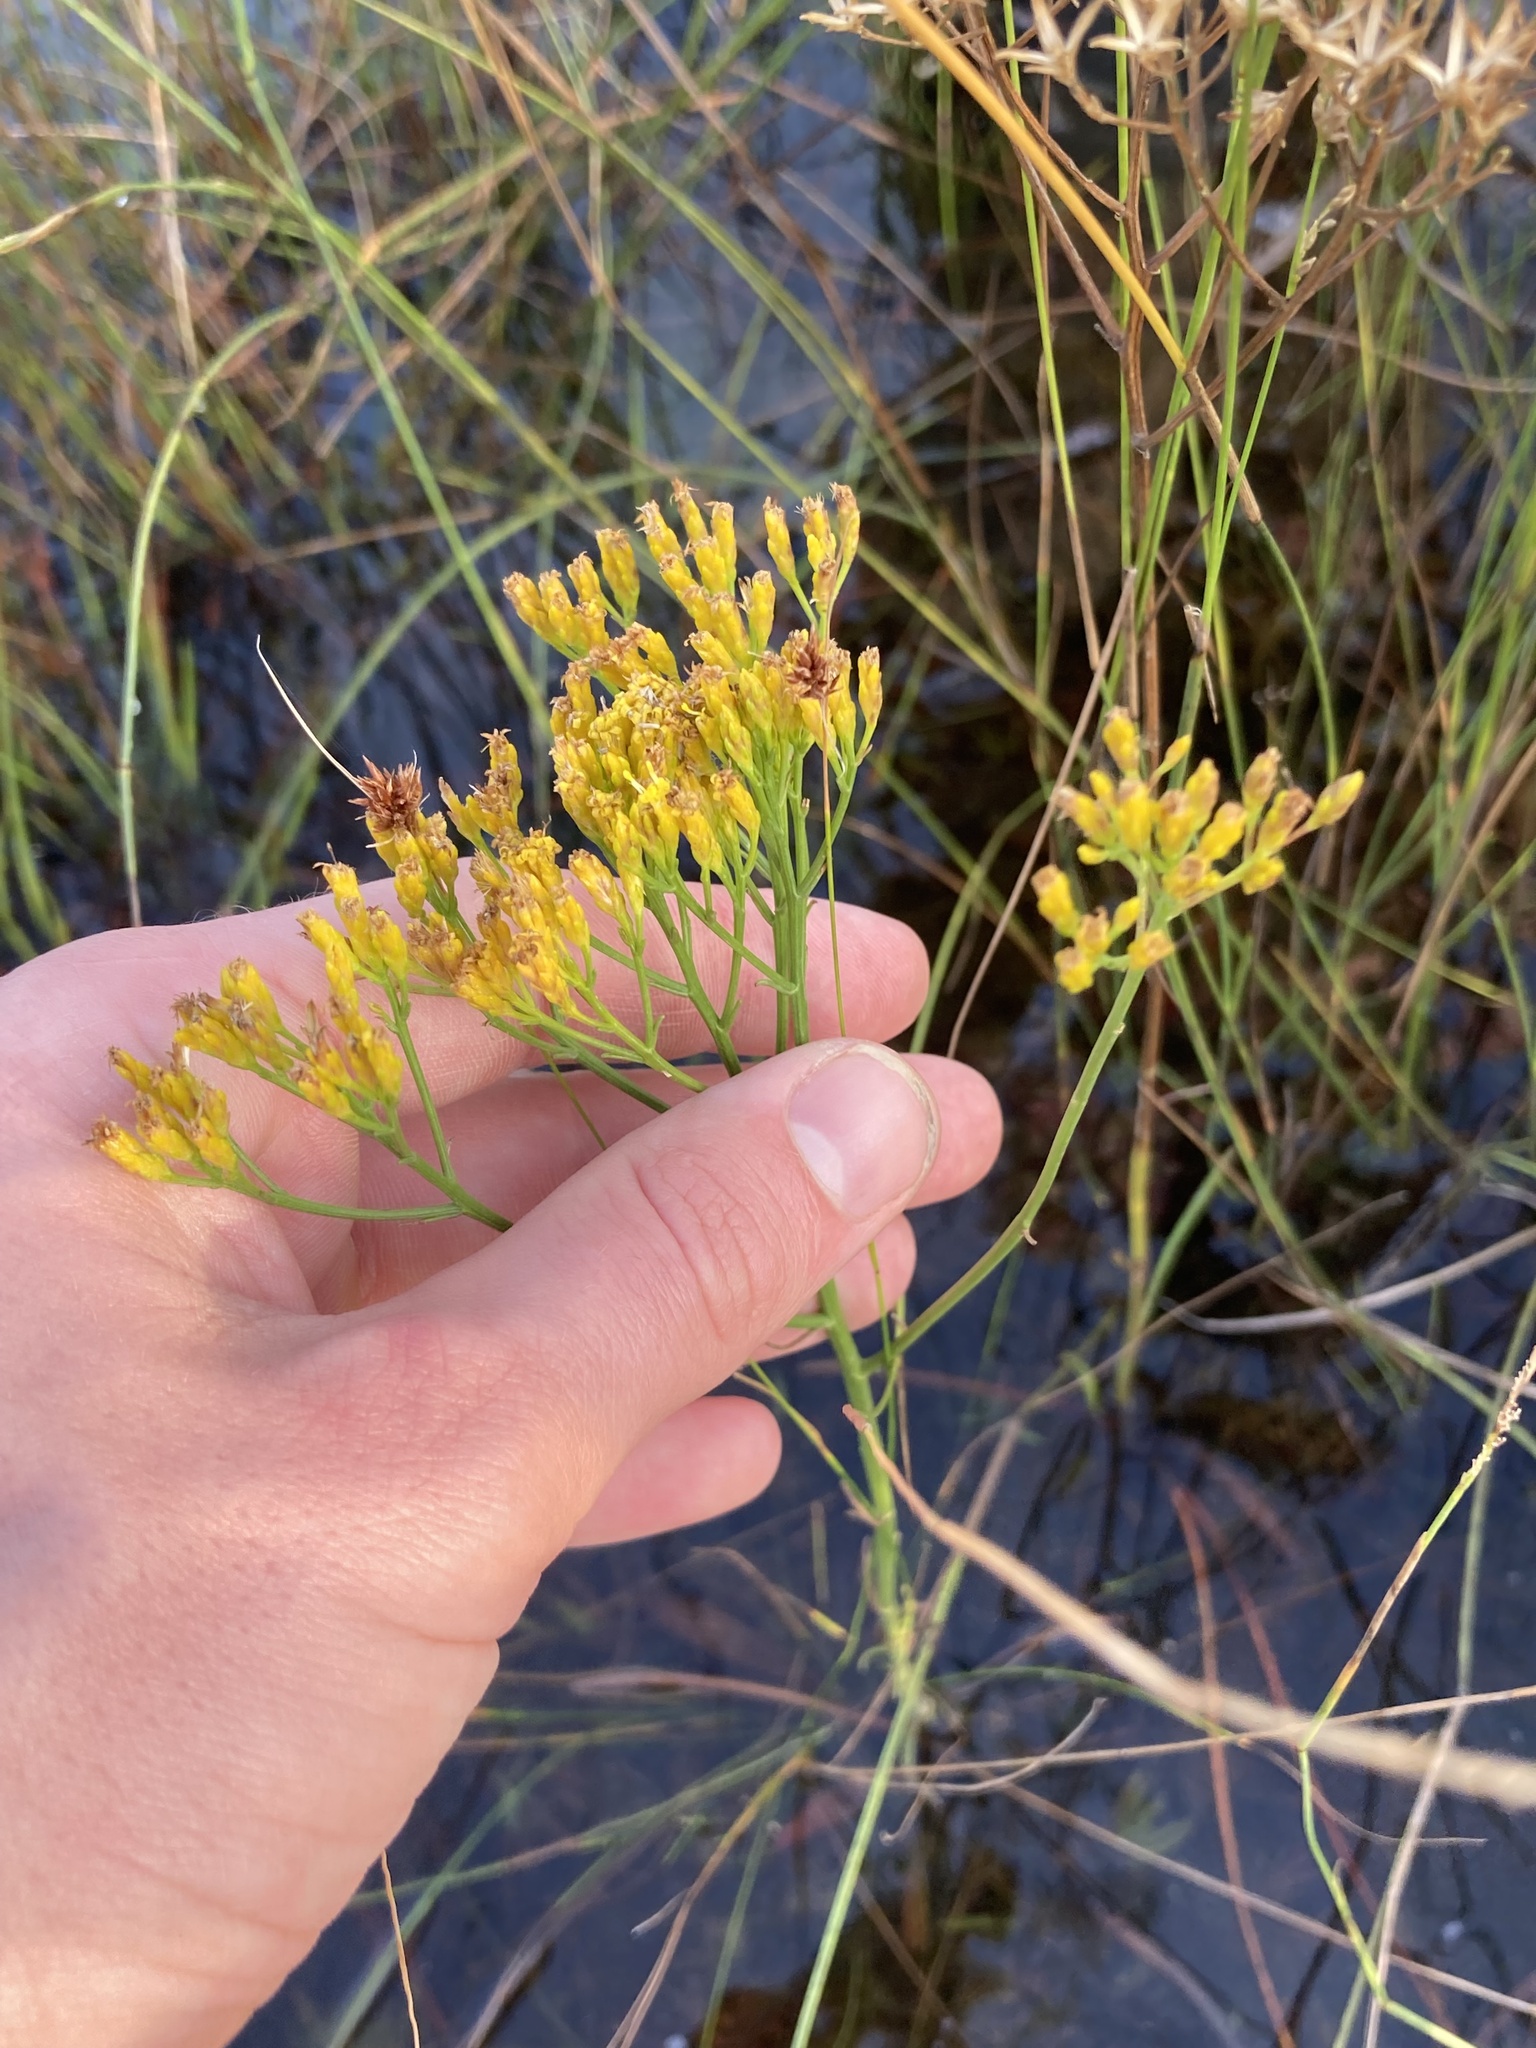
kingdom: Plantae
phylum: Tracheophyta
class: Magnoliopsida
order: Asterales
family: Asteraceae
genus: Bigelowia
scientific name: Bigelowia nudata
